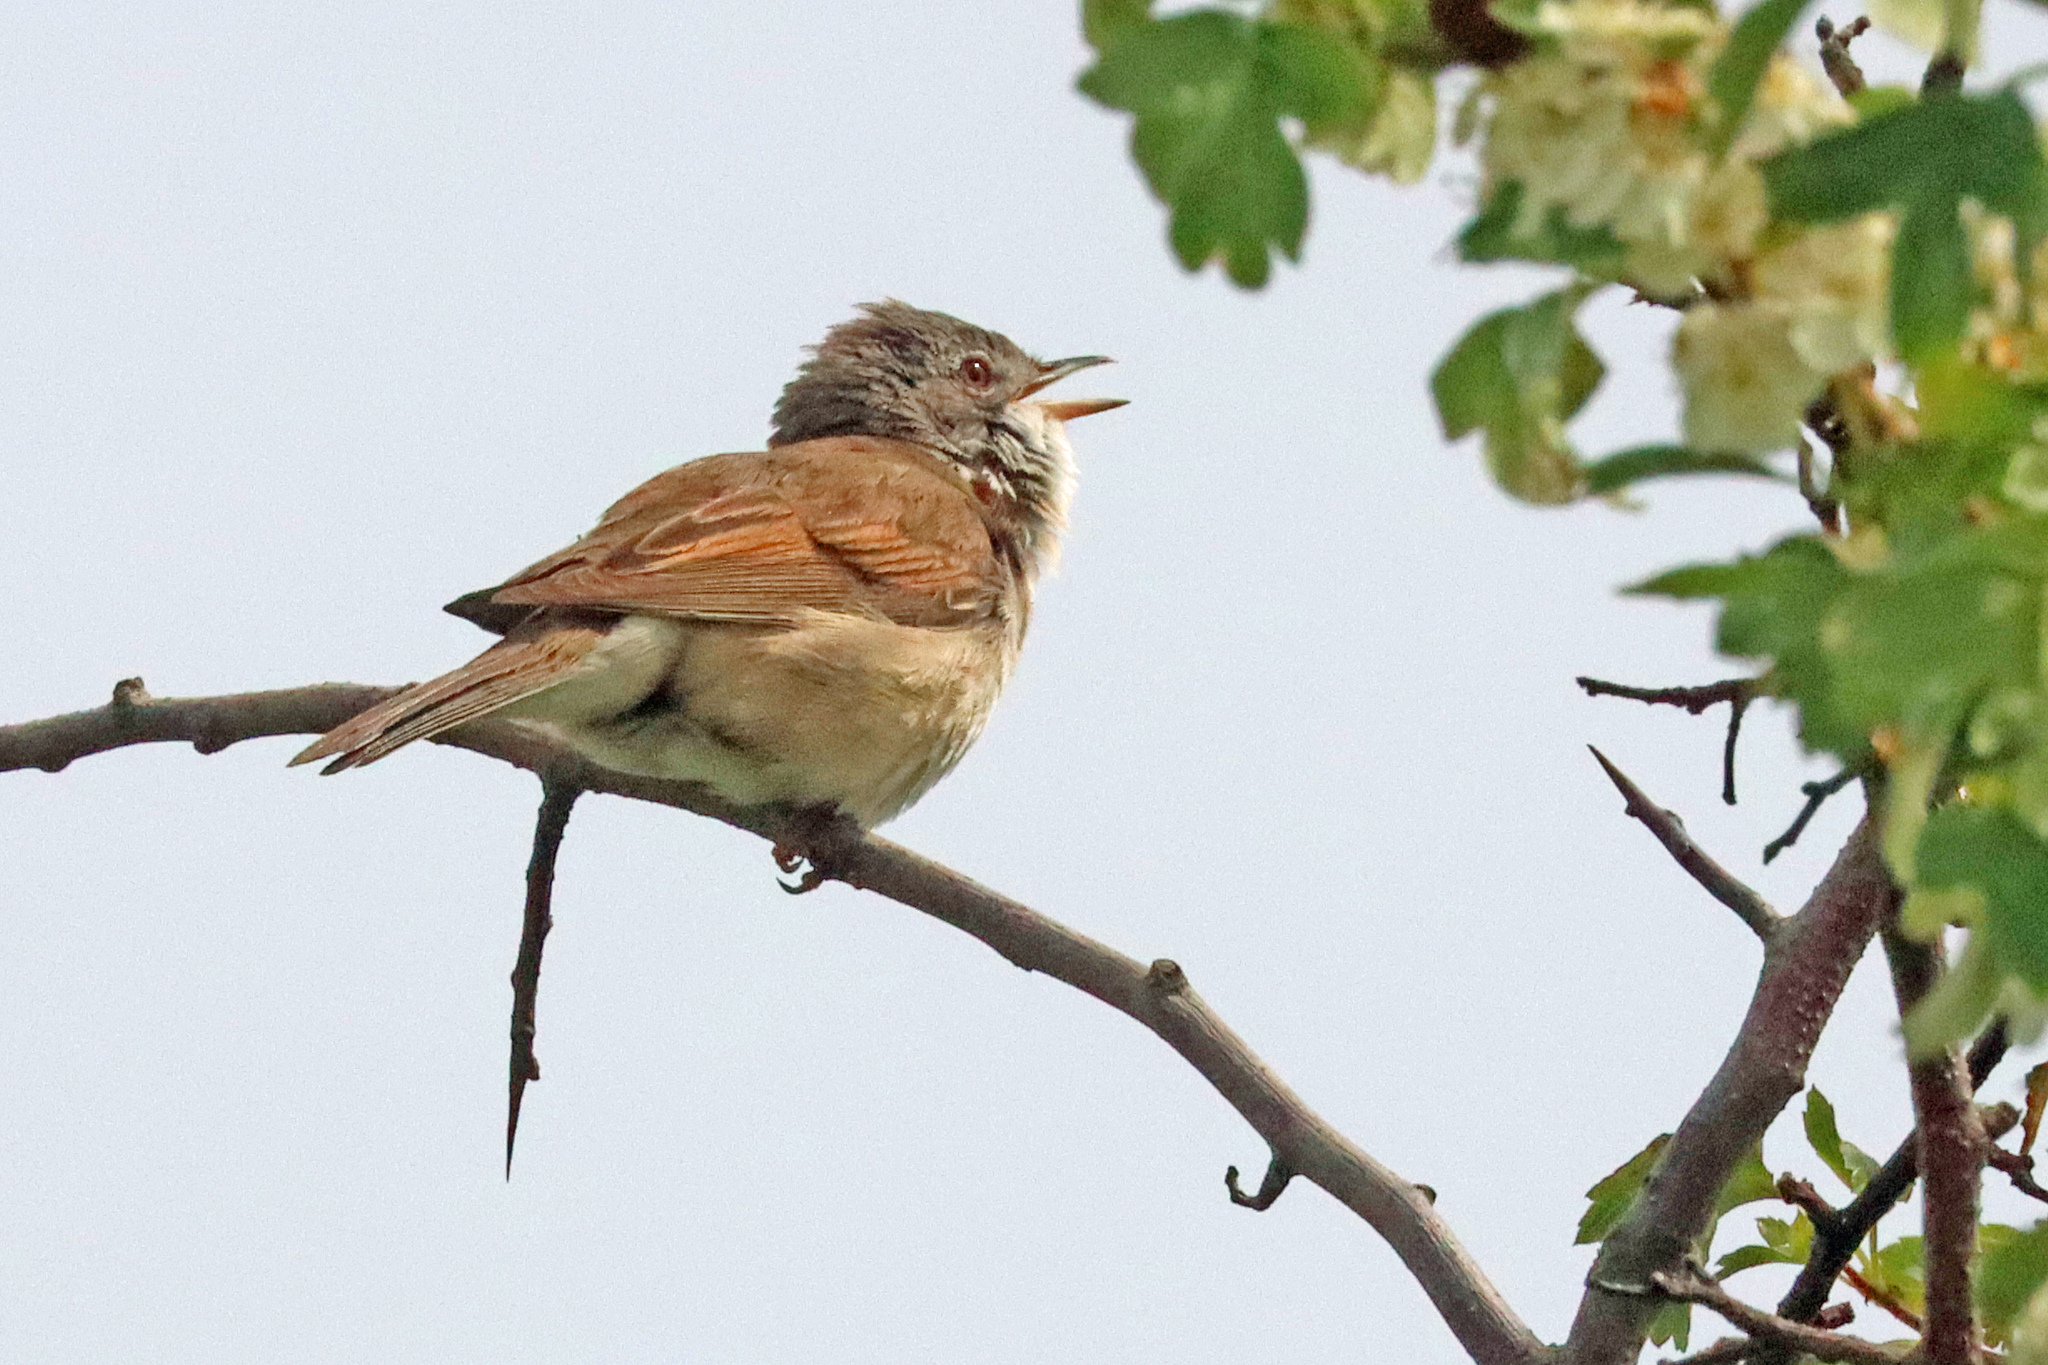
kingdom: Animalia
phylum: Chordata
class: Aves
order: Passeriformes
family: Sylviidae
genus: Sylvia
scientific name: Sylvia communis
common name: Common whitethroat
